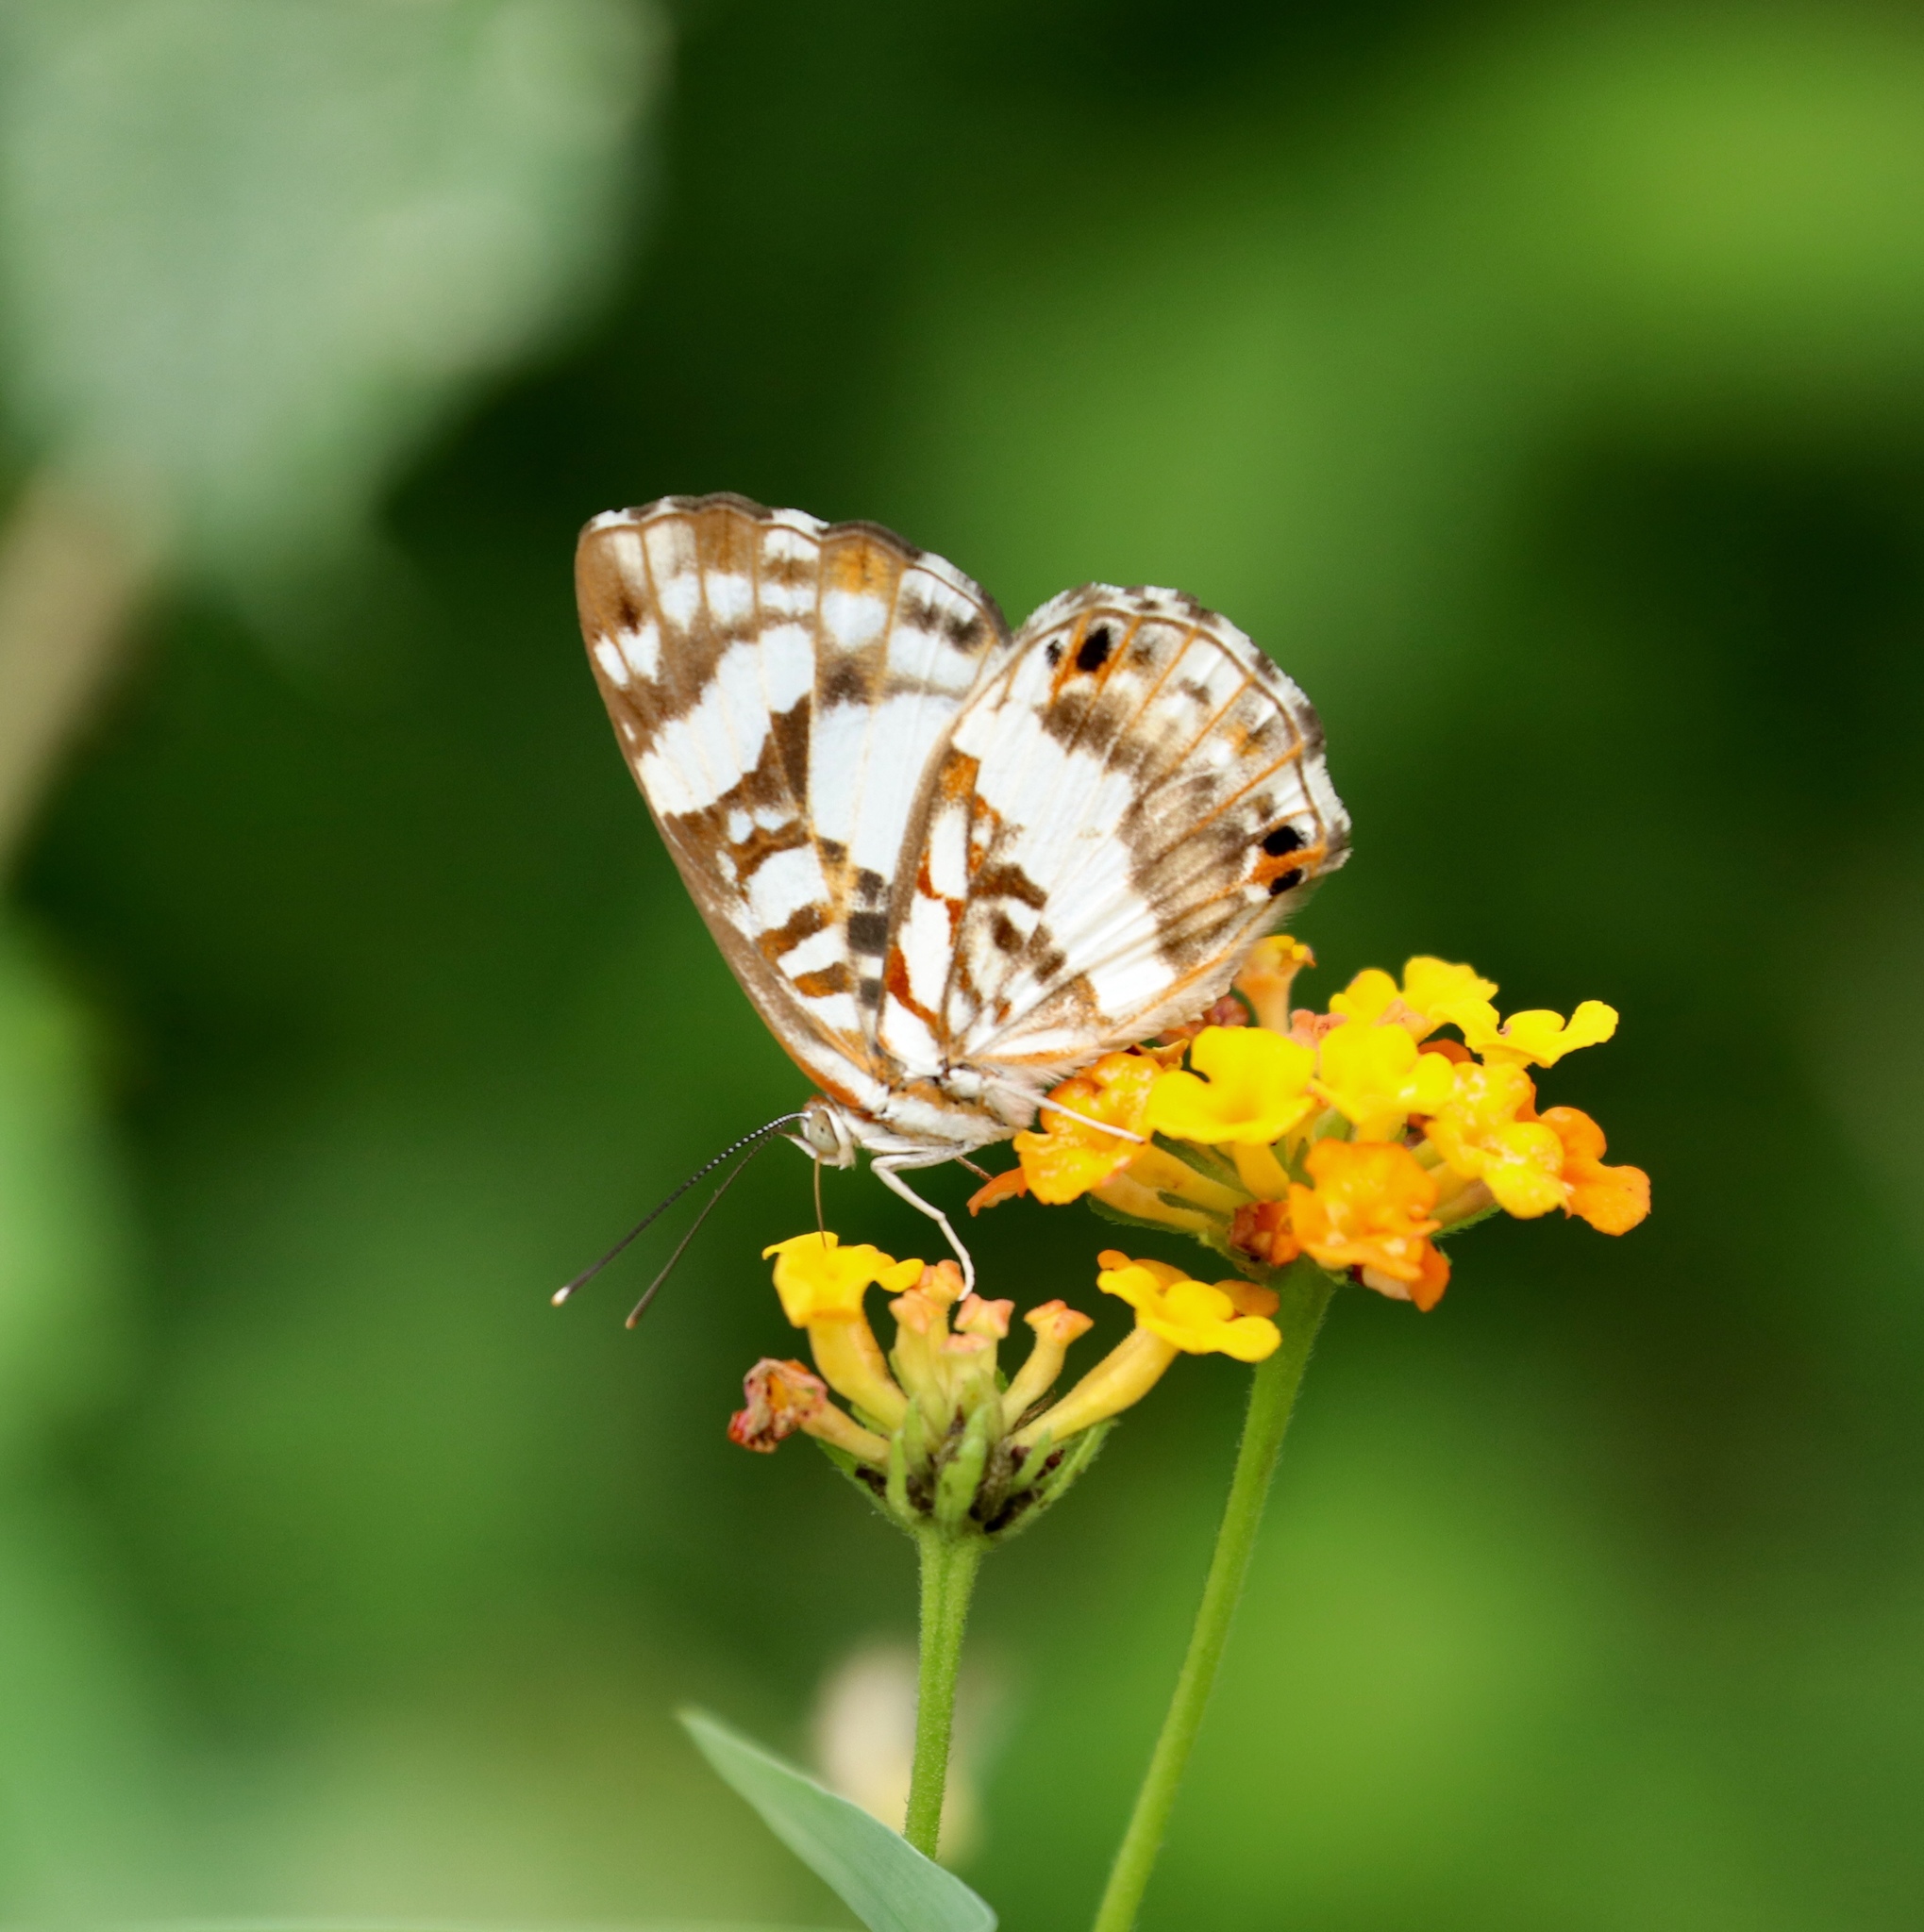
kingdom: Animalia
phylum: Arthropoda
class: Insecta
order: Lepidoptera
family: Riodinidae
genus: Ariconias
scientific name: Ariconias
